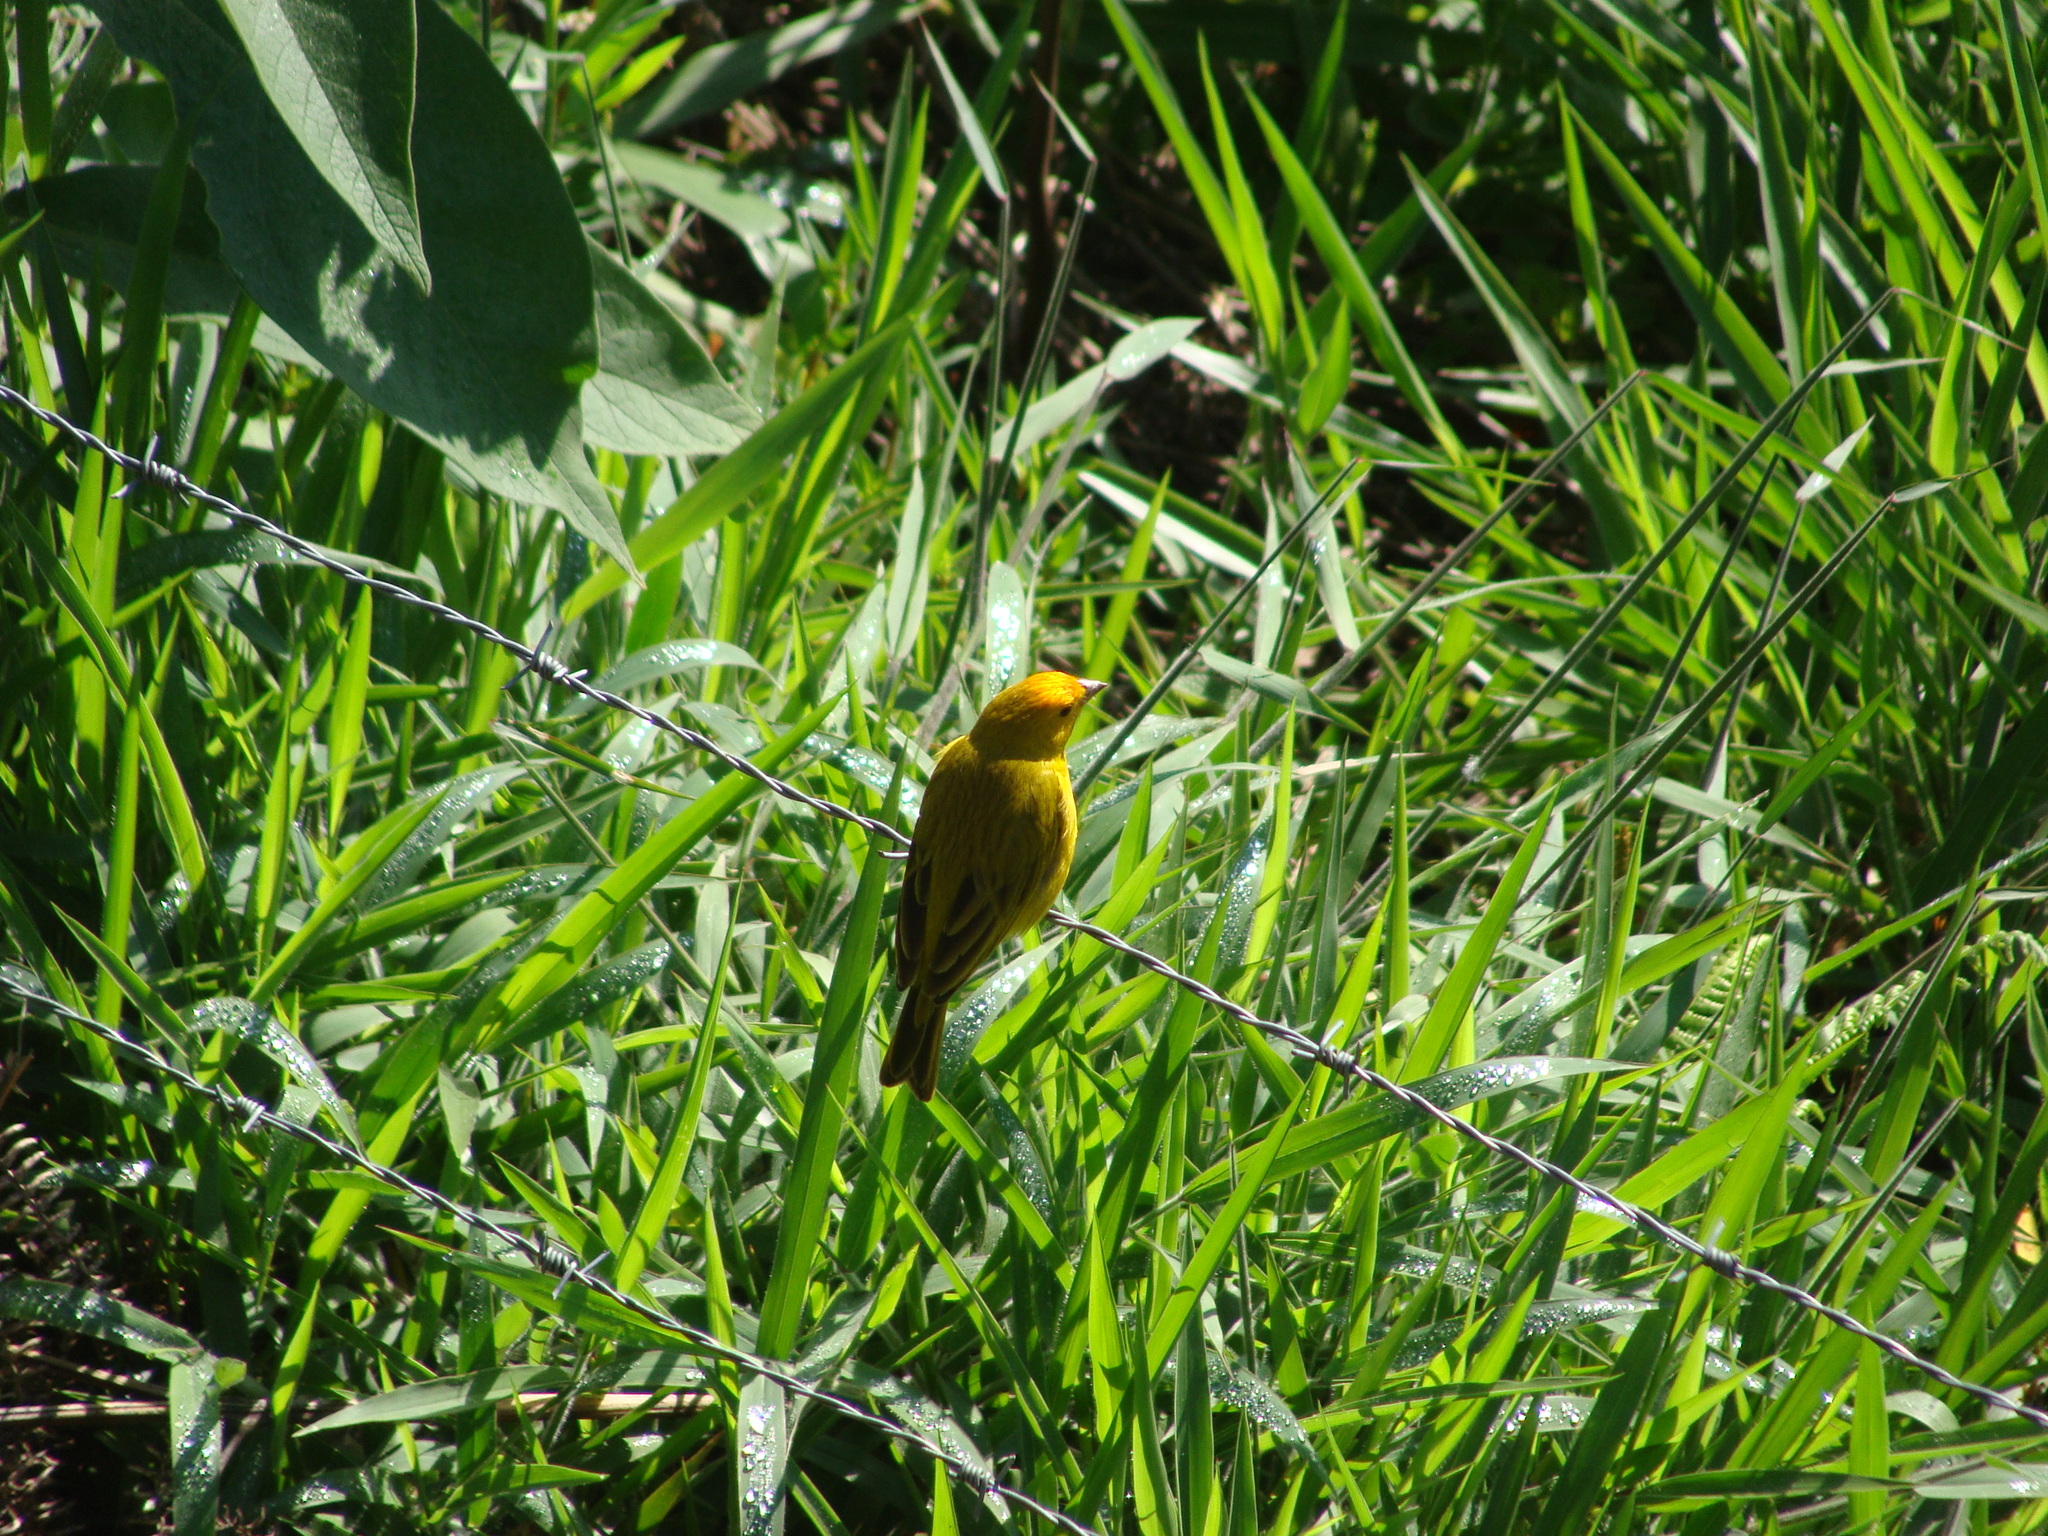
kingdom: Animalia
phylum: Chordata
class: Aves
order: Passeriformes
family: Thraupidae
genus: Sicalis
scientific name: Sicalis flaveola
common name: Saffron finch
